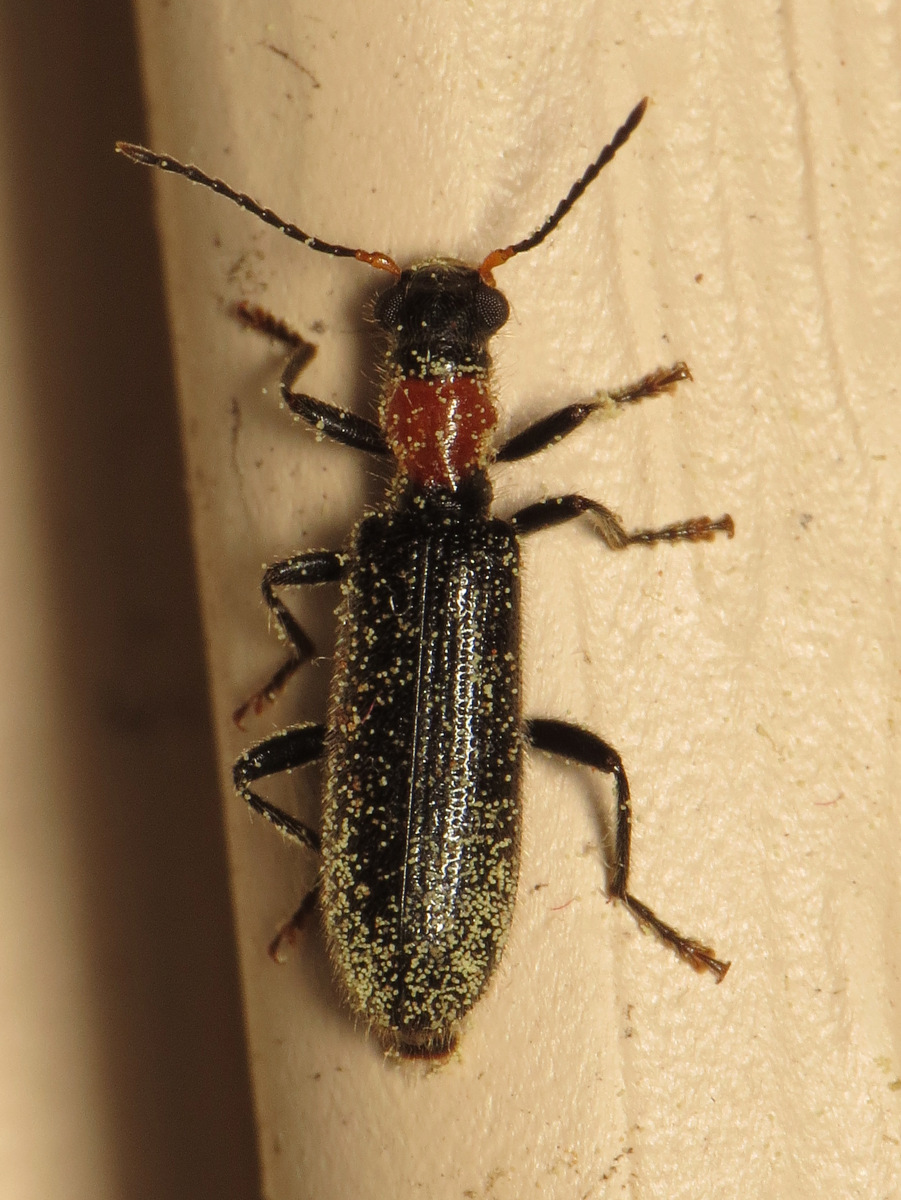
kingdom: Animalia
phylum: Arthropoda
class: Insecta
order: Coleoptera
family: Cleridae
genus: Cymatodera
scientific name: Cymatodera bicolor
